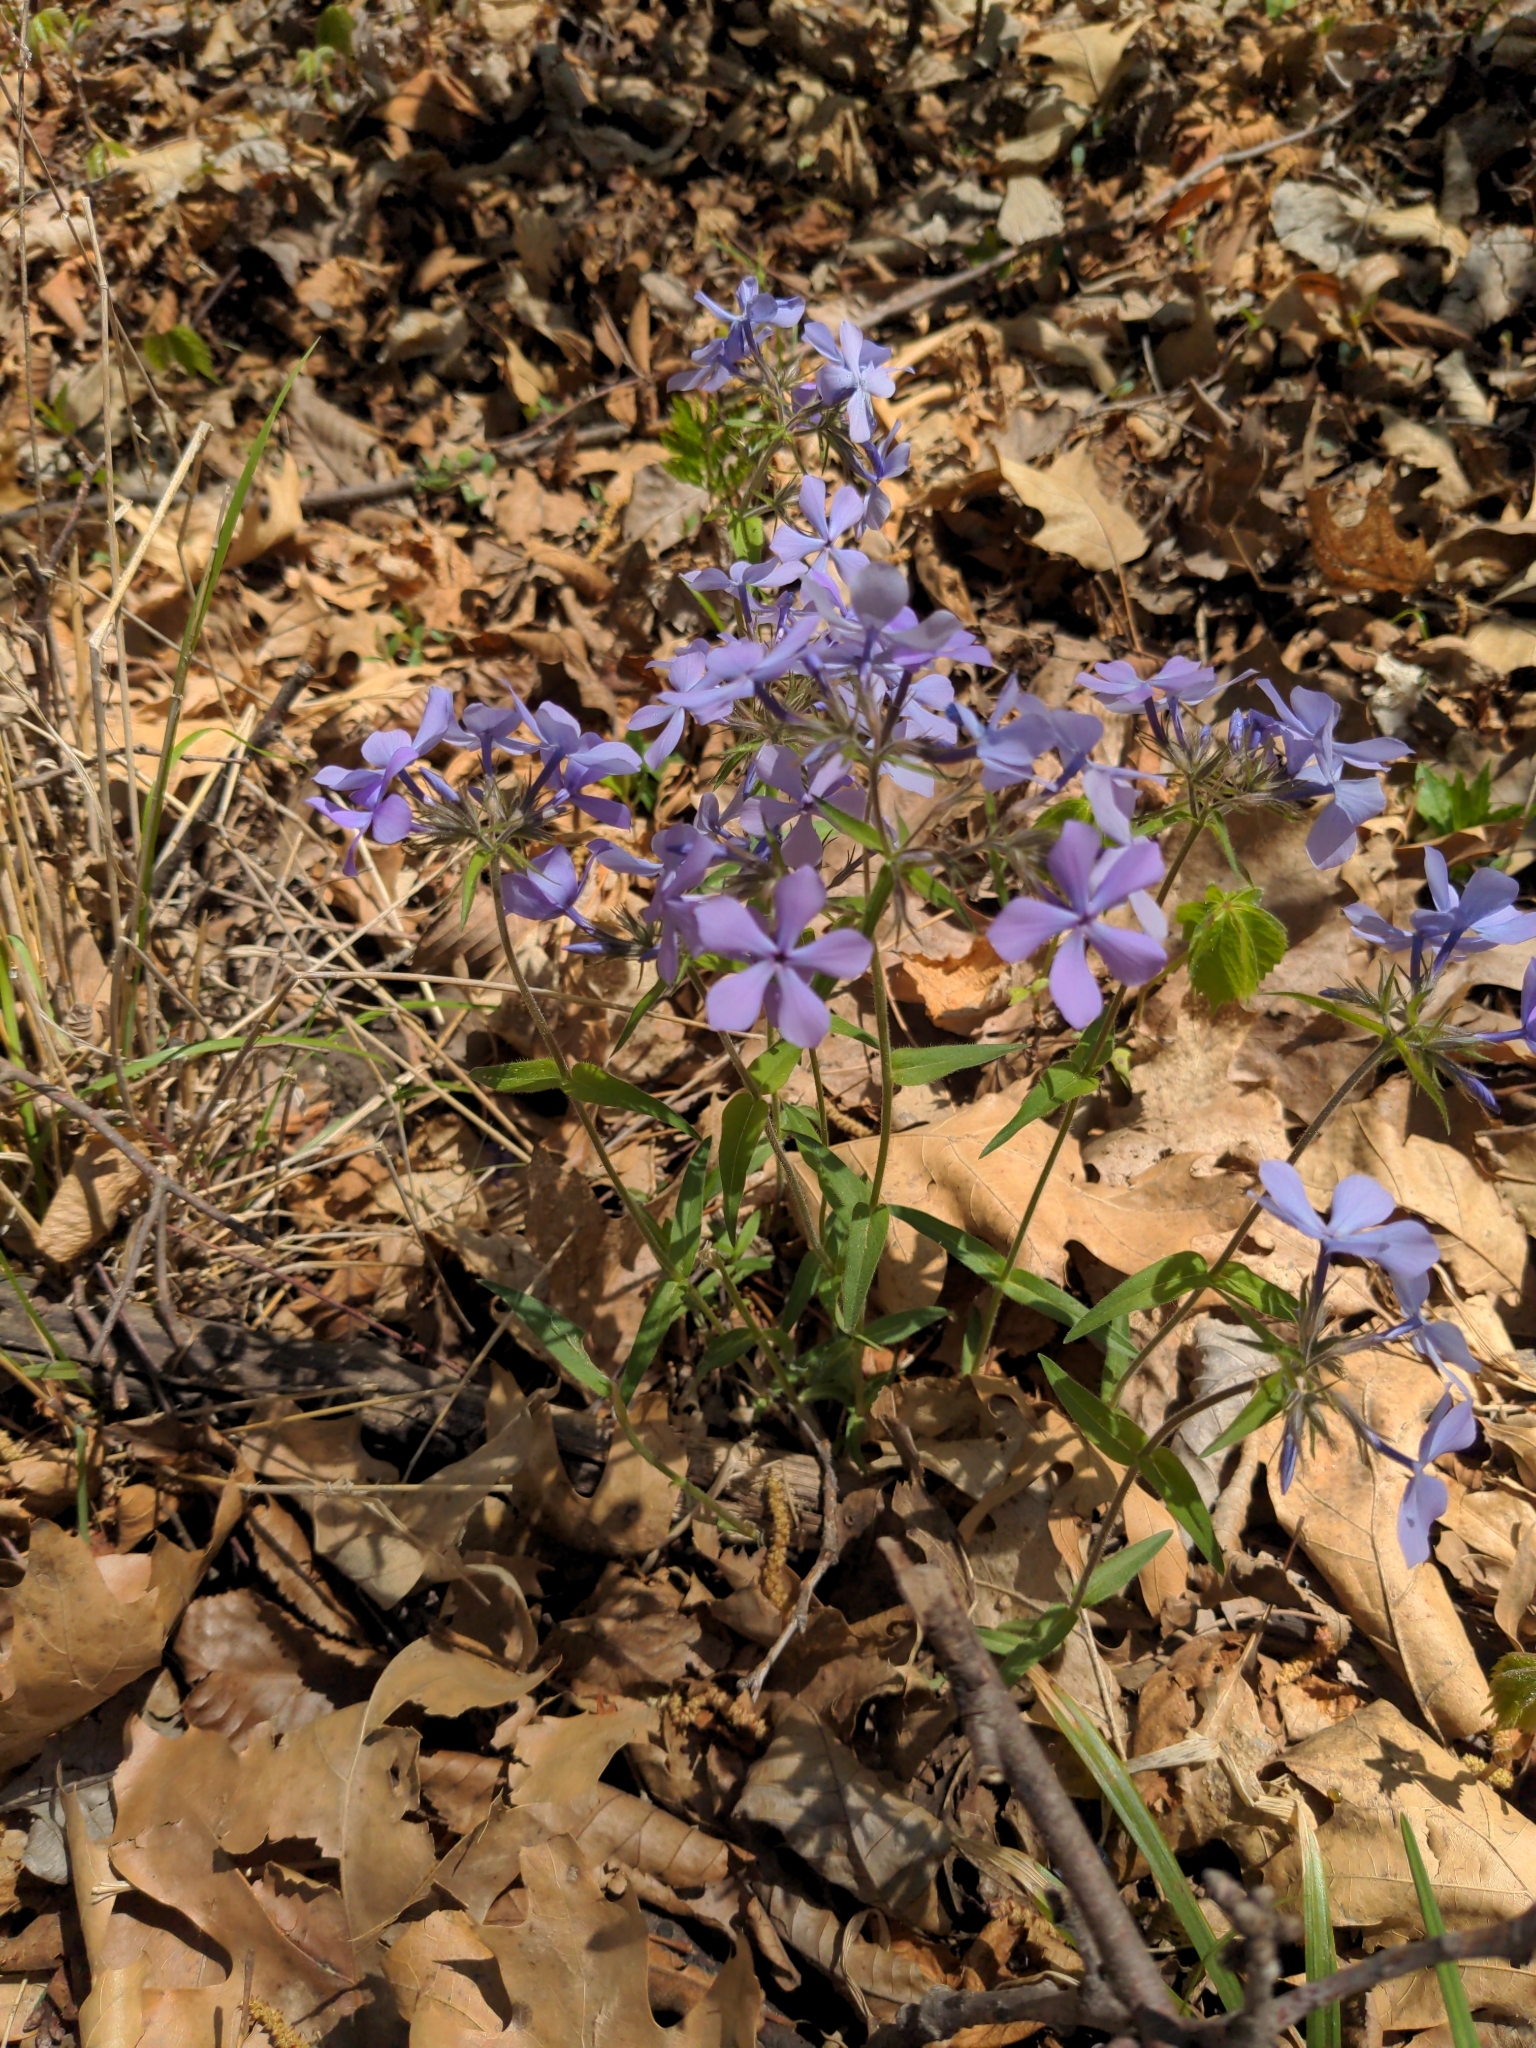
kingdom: Plantae
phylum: Tracheophyta
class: Magnoliopsida
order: Ericales
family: Polemoniaceae
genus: Phlox
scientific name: Phlox divaricata
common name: Blue phlox
